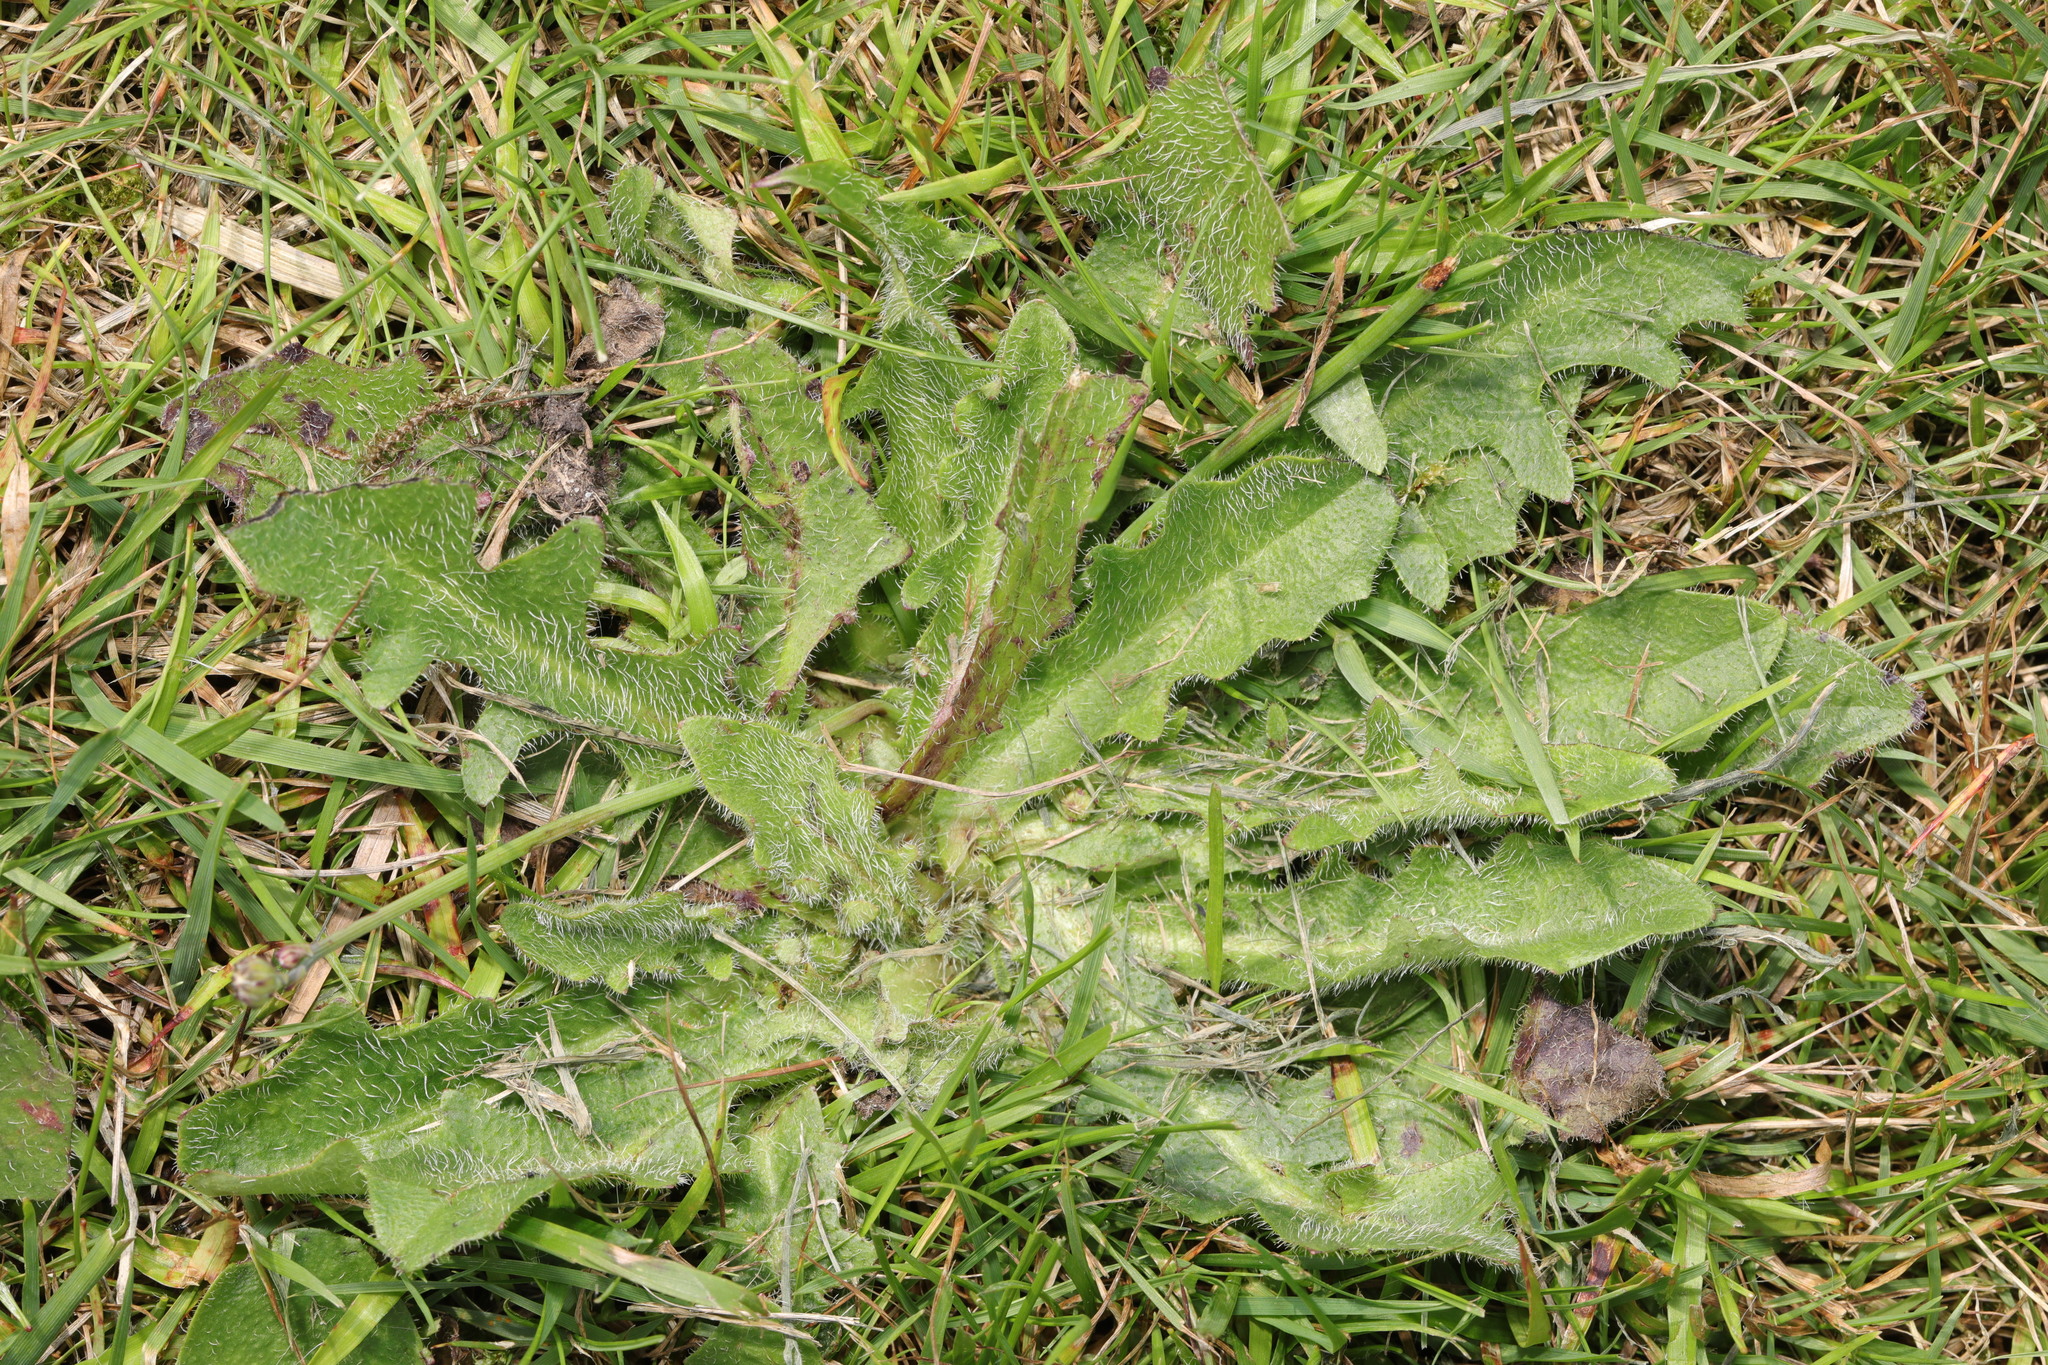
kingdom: Plantae
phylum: Tracheophyta
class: Magnoliopsida
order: Asterales
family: Asteraceae
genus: Hypochaeris
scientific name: Hypochaeris radicata
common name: Flatweed
